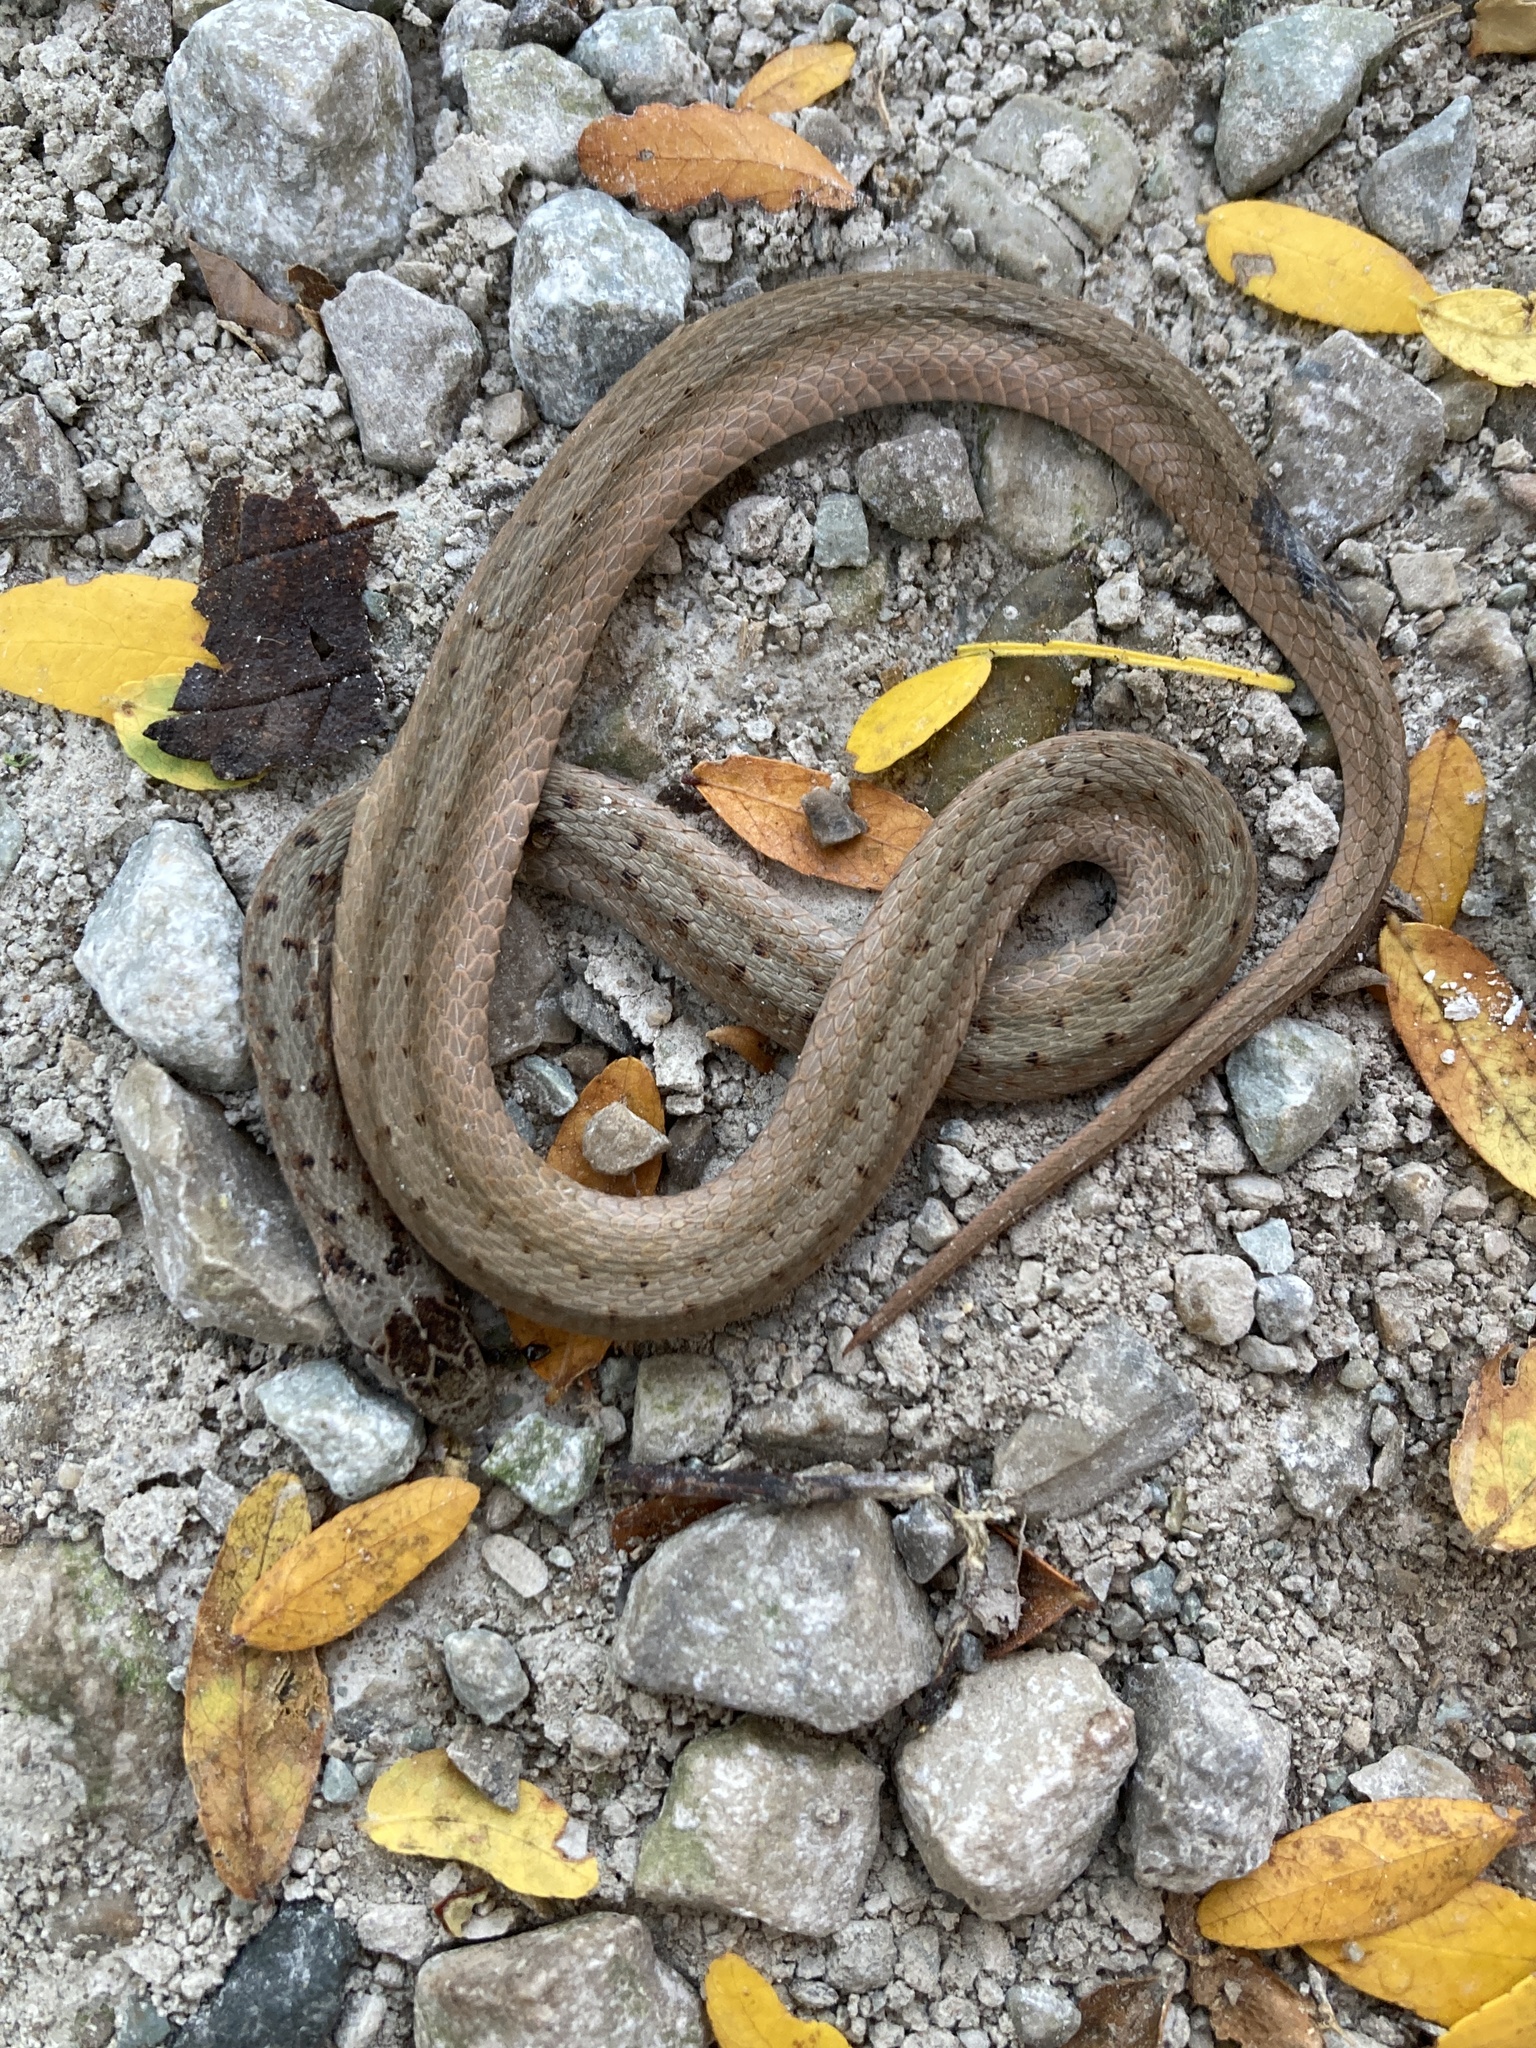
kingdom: Animalia
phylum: Chordata
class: Squamata
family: Colubridae
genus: Storeria
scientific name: Storeria dekayi
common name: (dekay’s) brown snake
